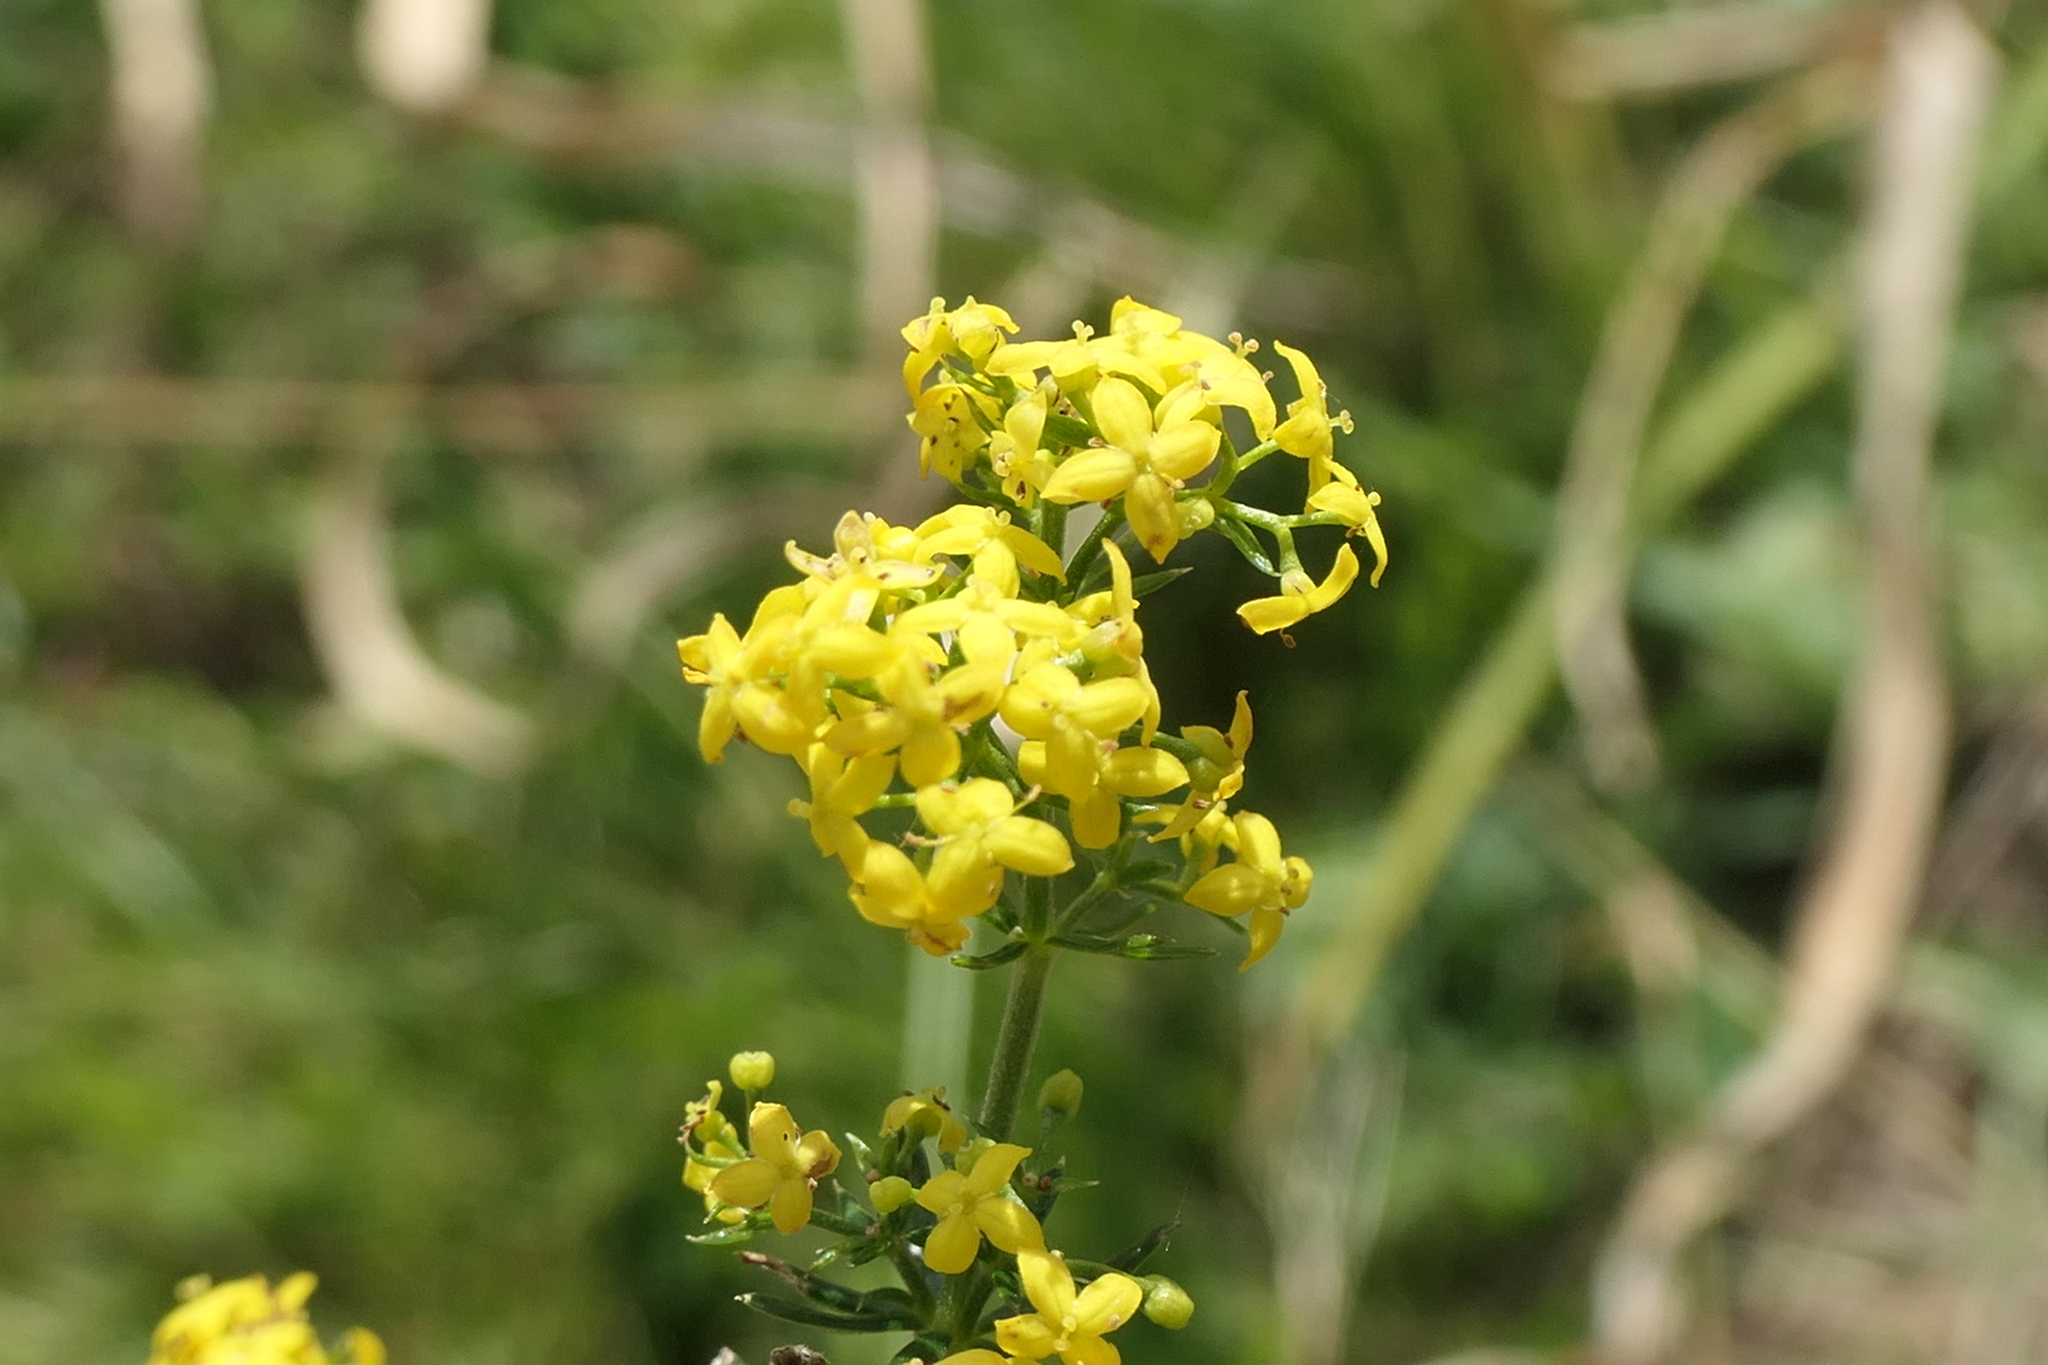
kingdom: Plantae
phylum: Tracheophyta
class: Magnoliopsida
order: Gentianales
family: Rubiaceae
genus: Galium
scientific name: Galium verum
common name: Lady's bedstraw
